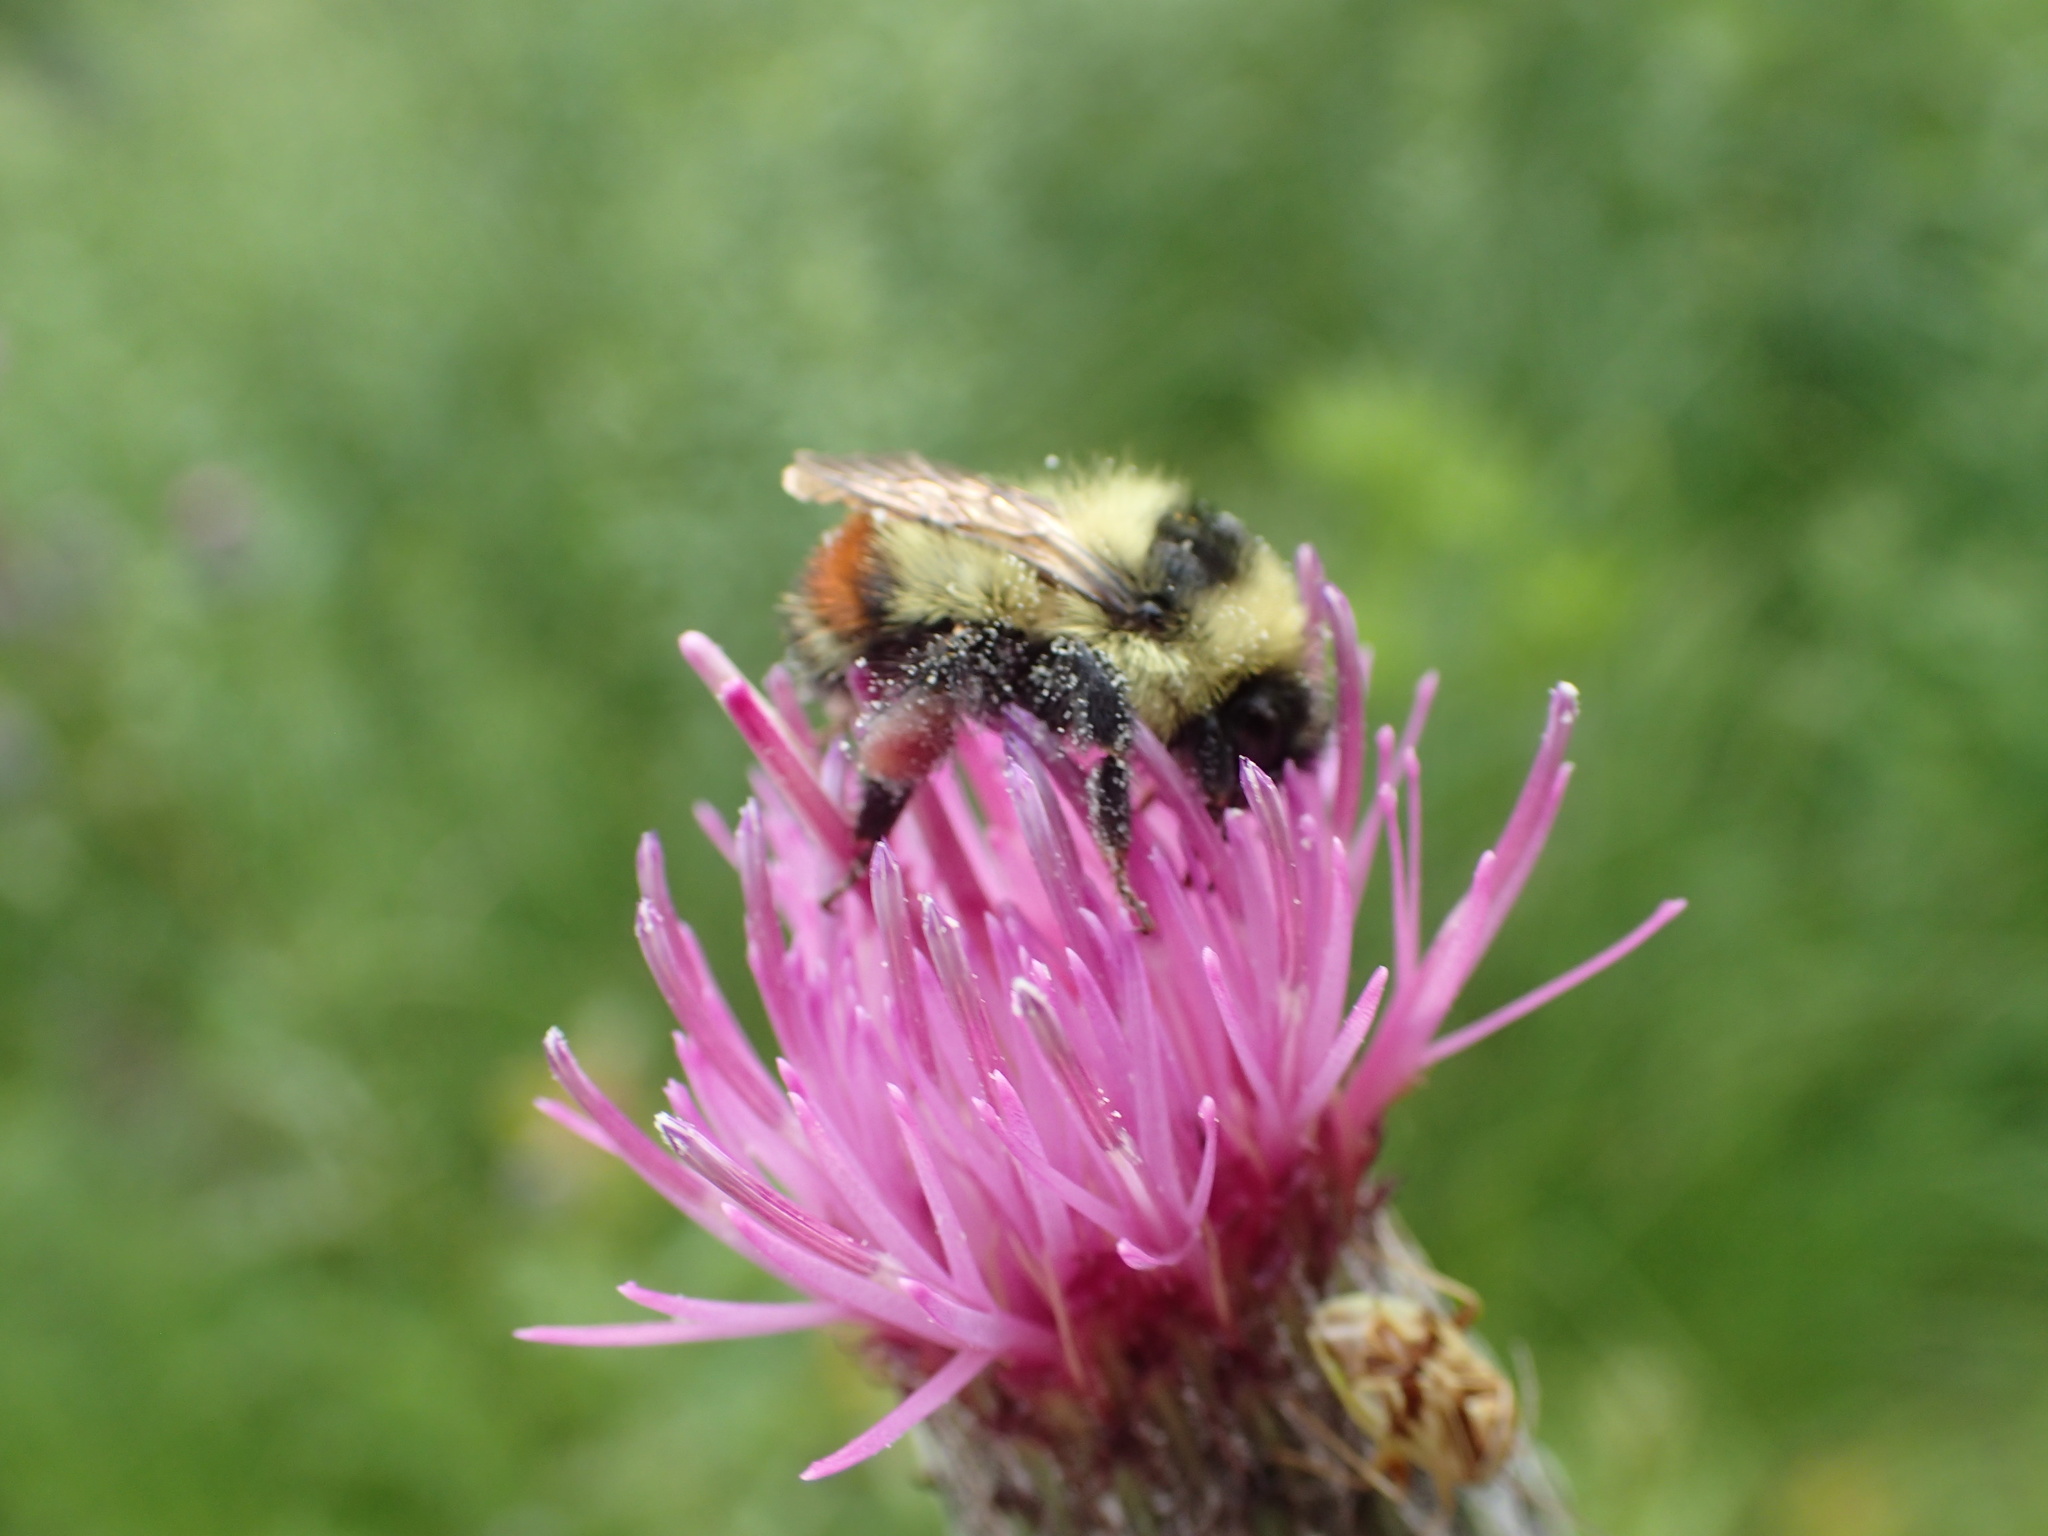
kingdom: Animalia
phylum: Arthropoda
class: Insecta
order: Hymenoptera
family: Apidae
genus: Bombus
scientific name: Bombus rufocinctus
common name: Red-belted bumble bee
